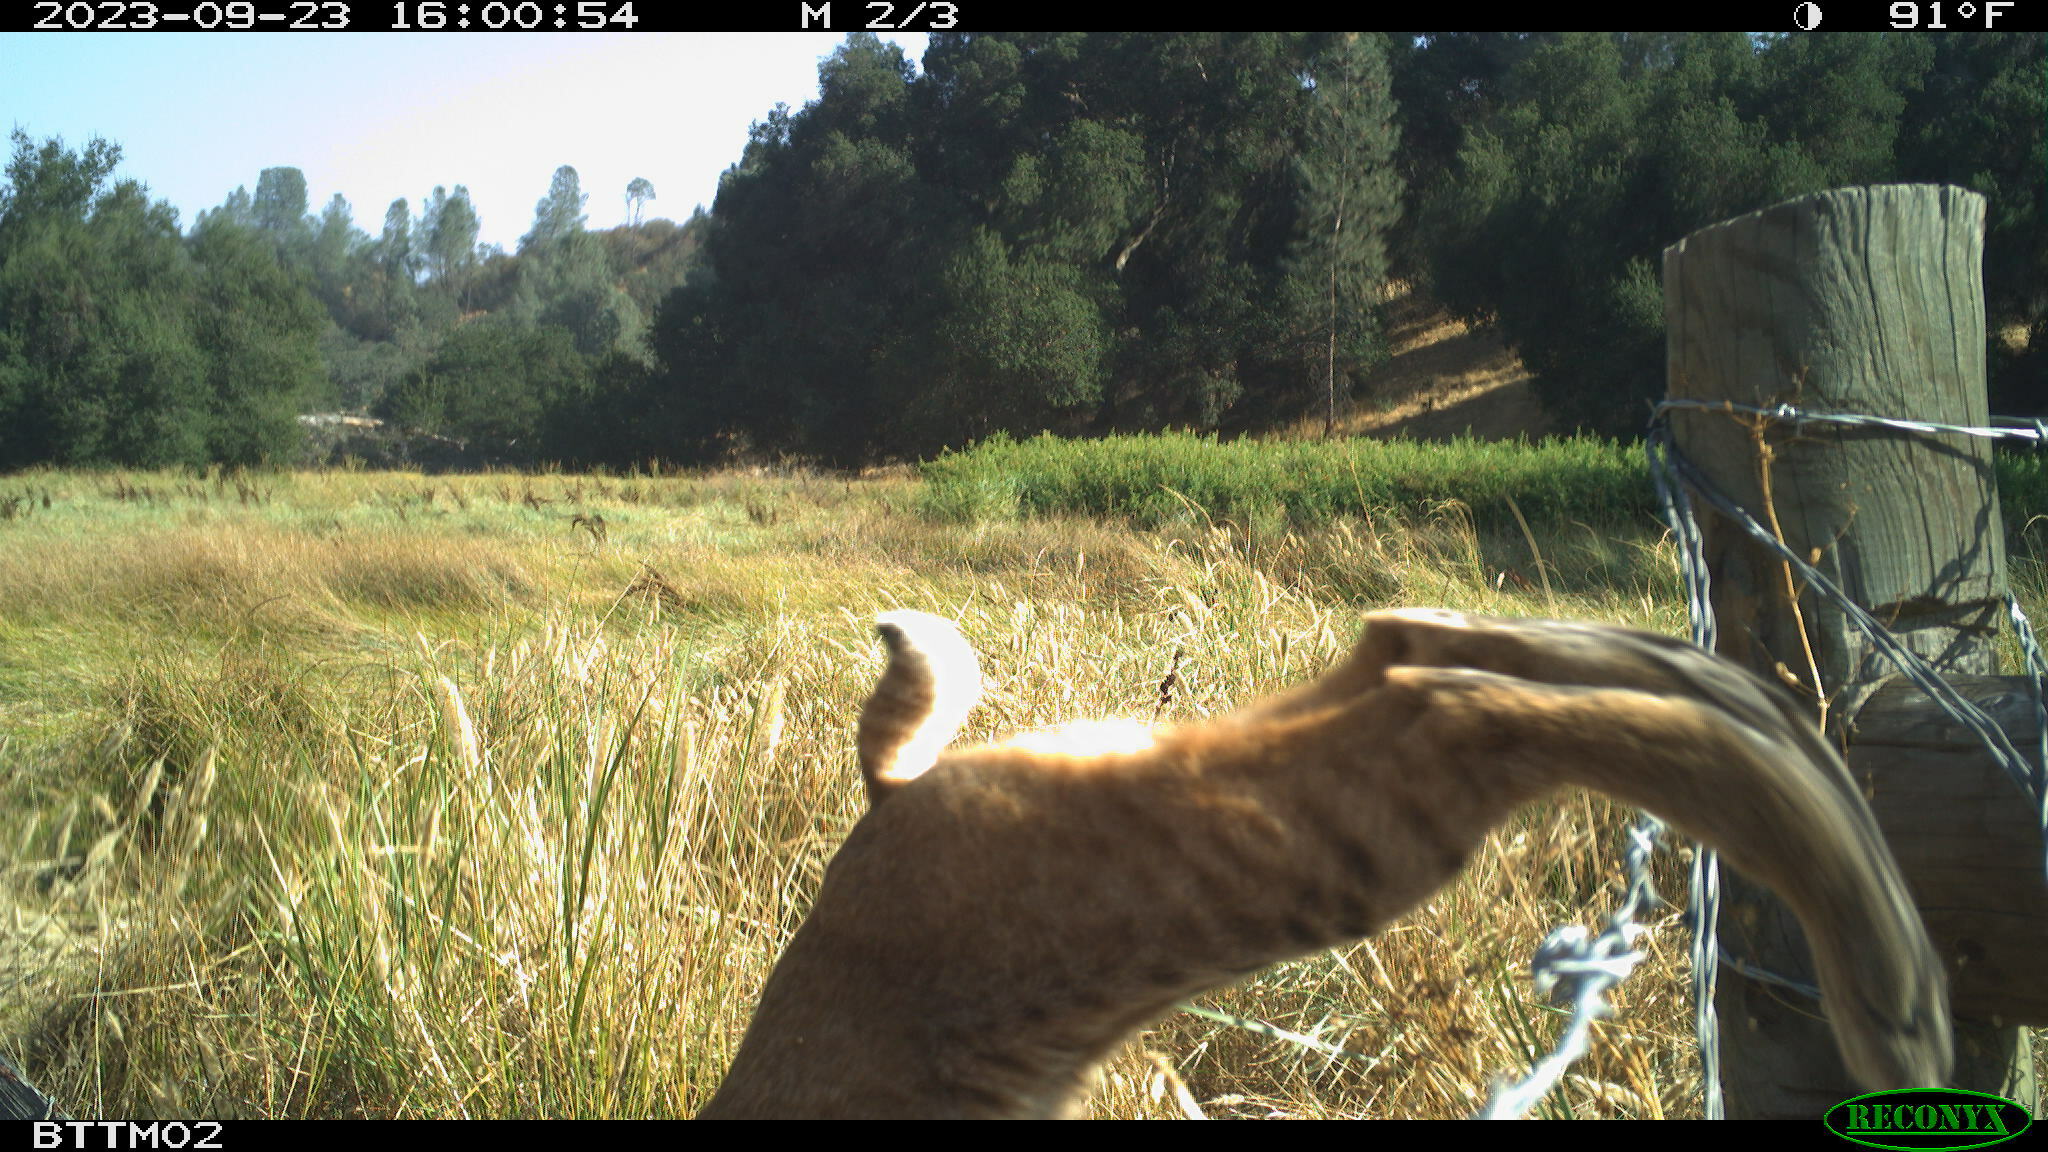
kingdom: Animalia
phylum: Chordata
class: Mammalia
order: Carnivora
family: Felidae
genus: Lynx
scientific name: Lynx rufus
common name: Bobcat
